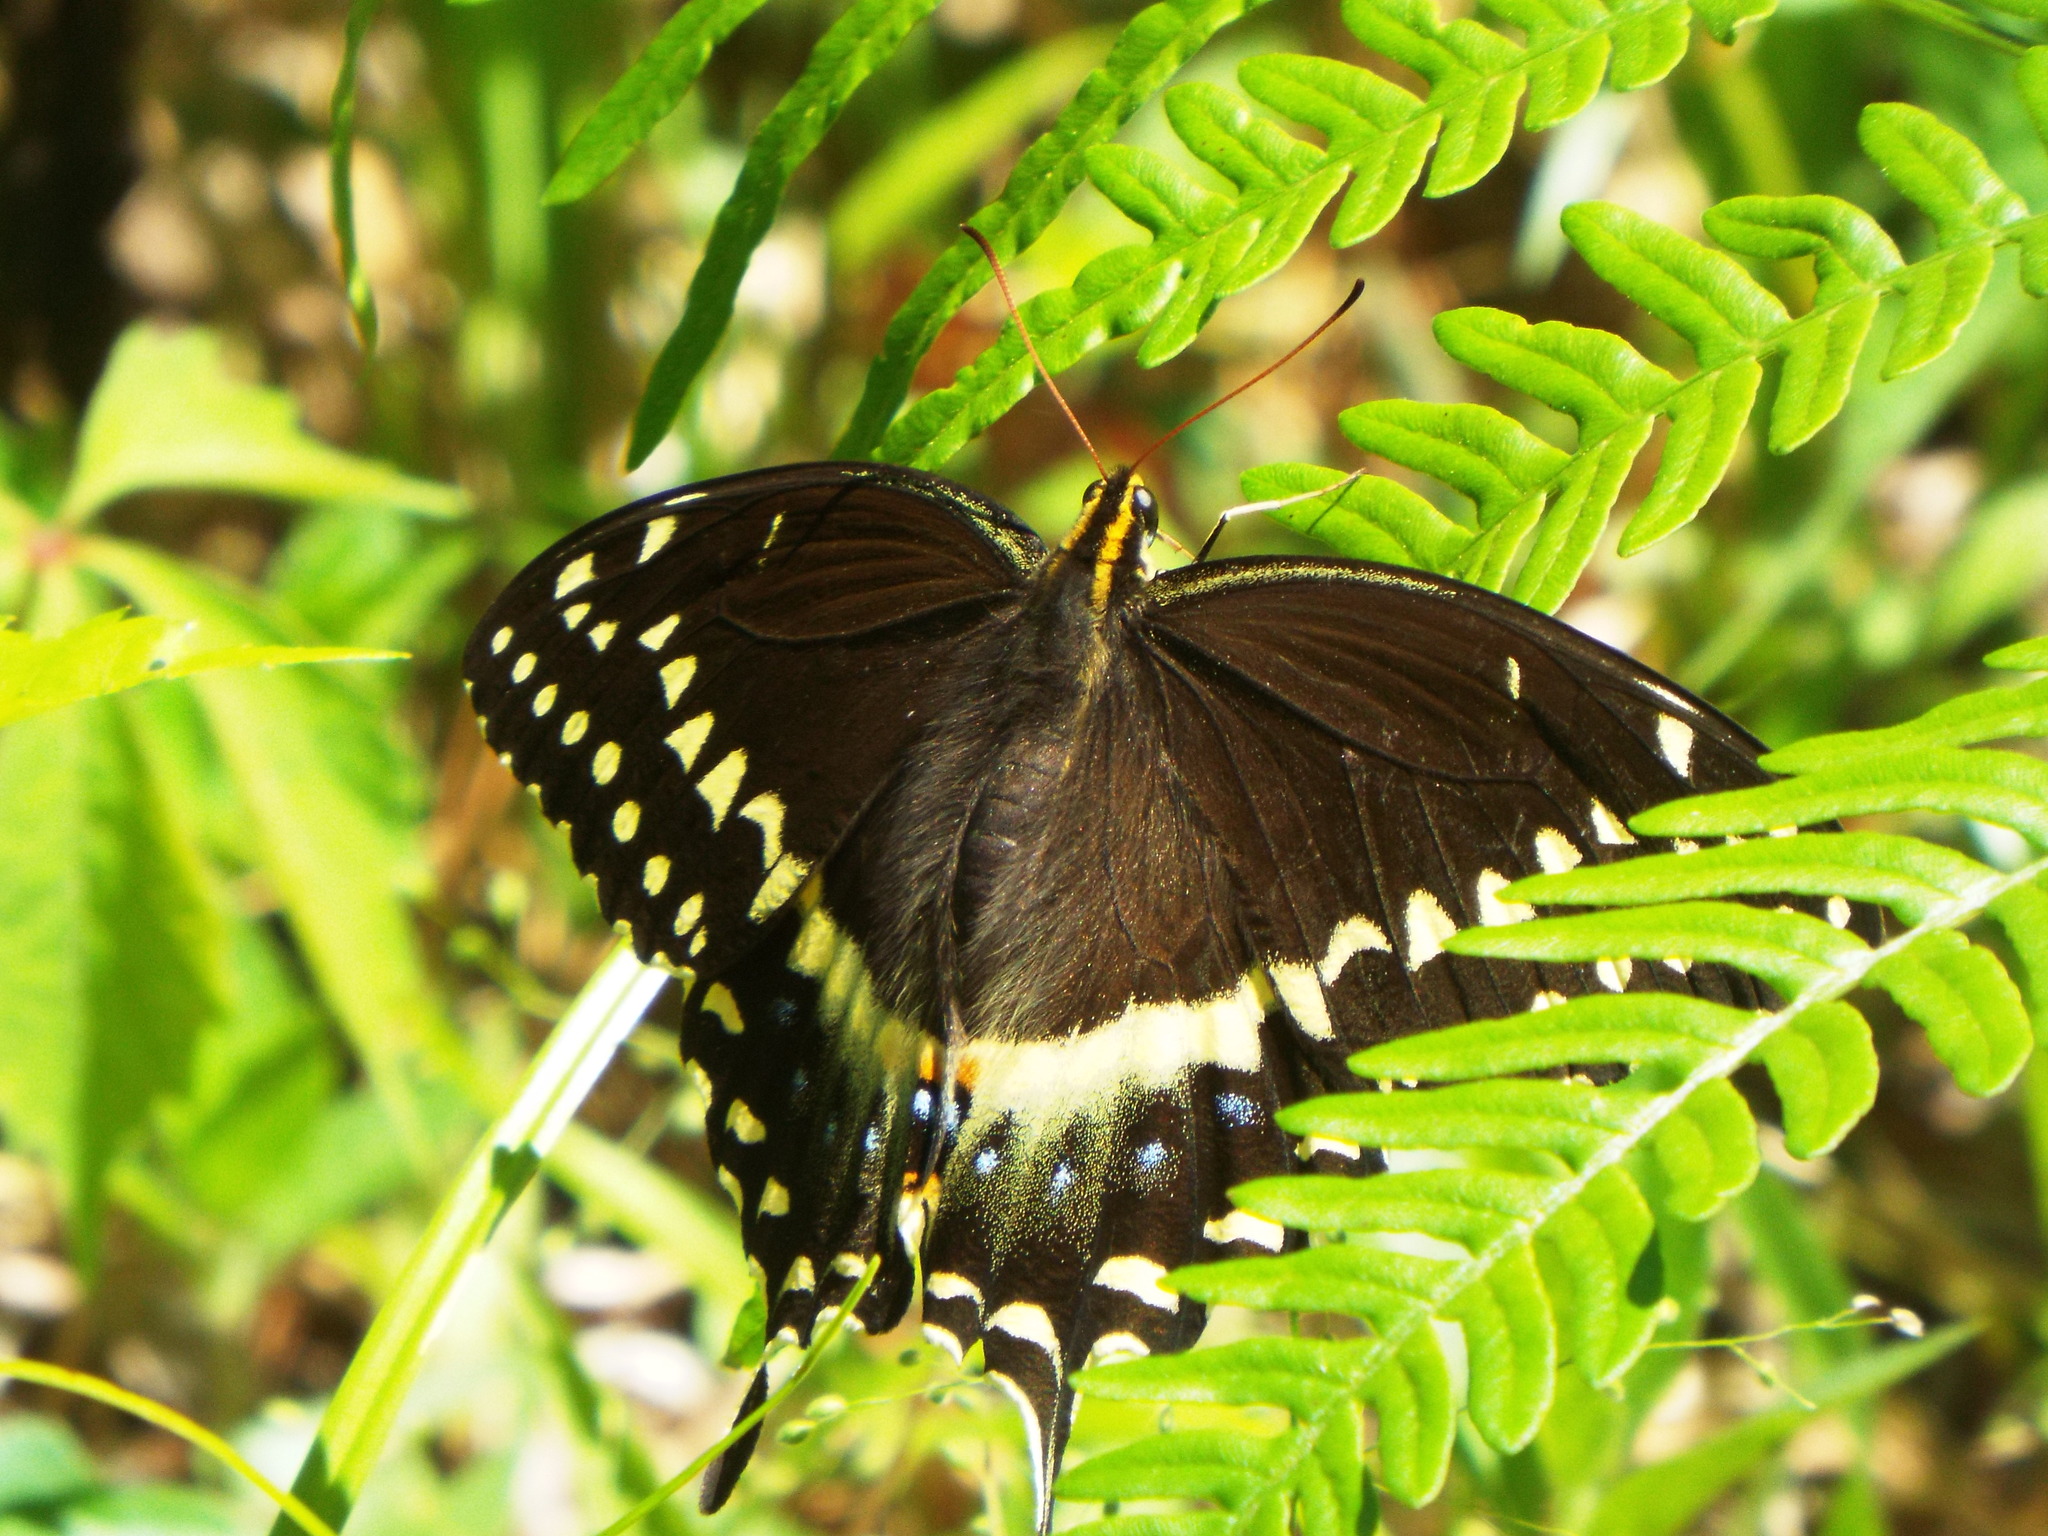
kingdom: Animalia
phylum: Arthropoda
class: Insecta
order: Lepidoptera
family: Papilionidae
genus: Papilio
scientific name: Papilio palamedes
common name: Palamedes swallowtail
